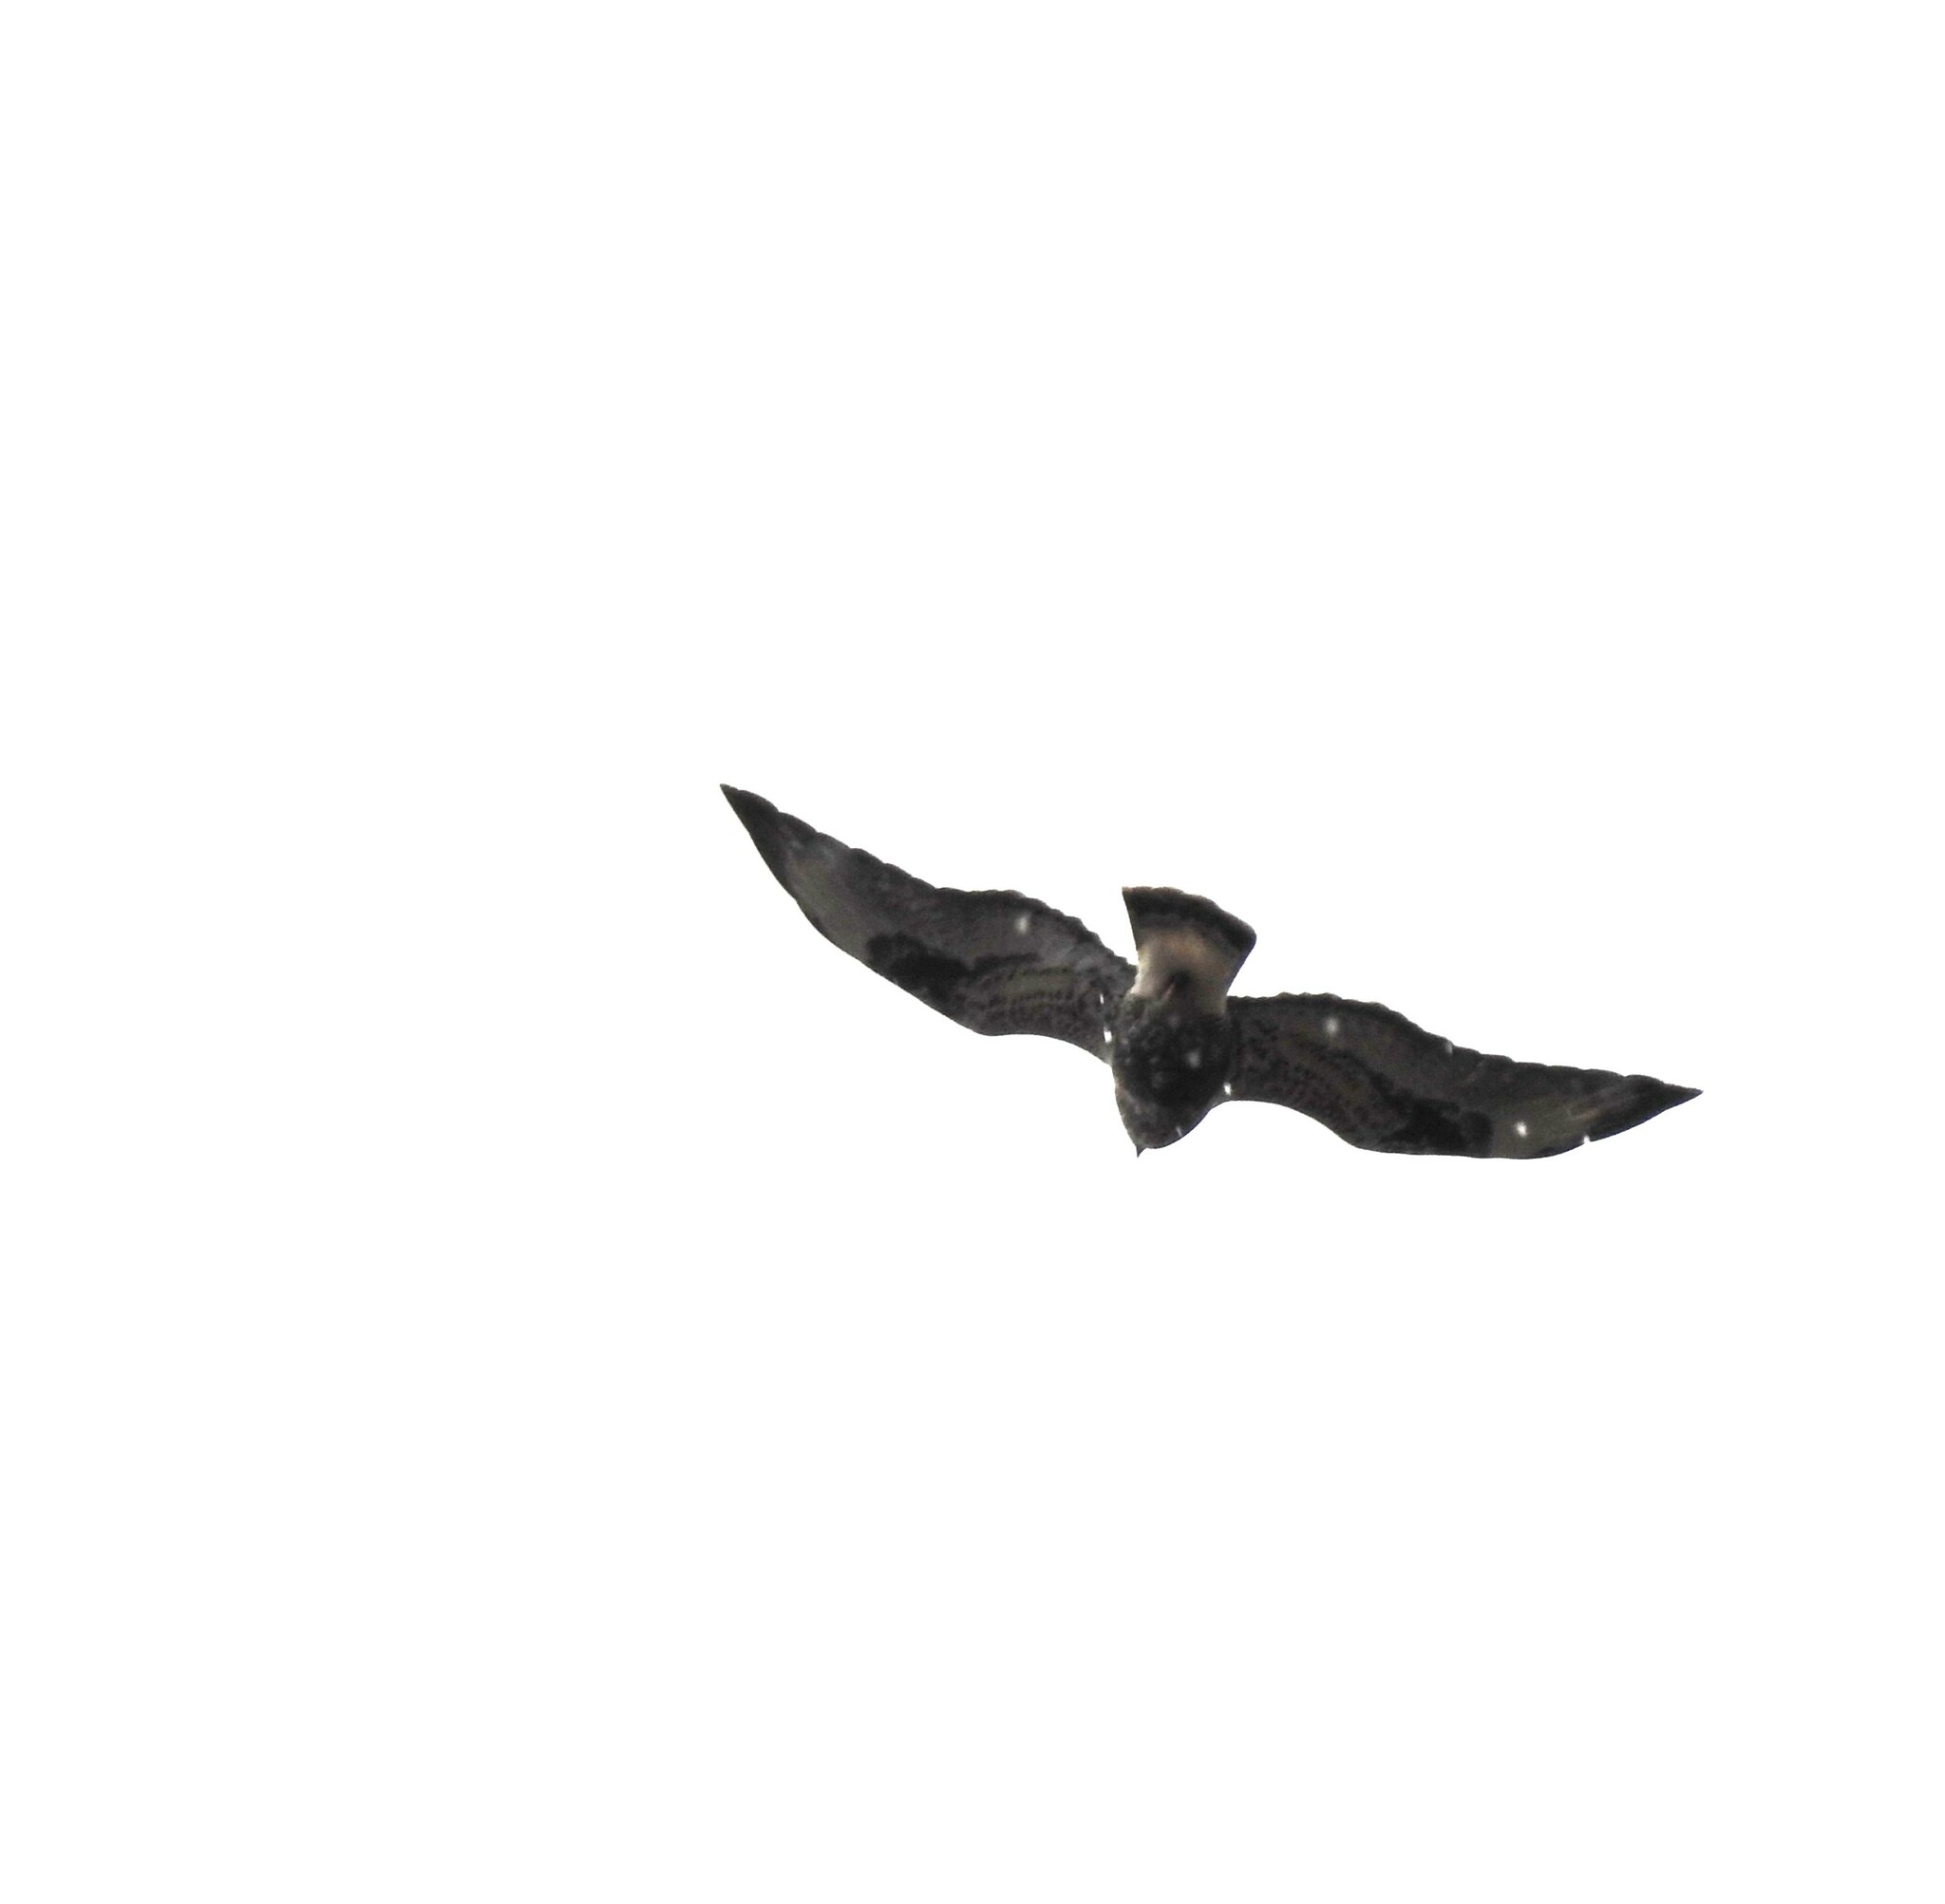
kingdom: Animalia
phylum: Chordata
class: Aves
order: Accipitriformes
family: Accipitridae
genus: Buteo
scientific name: Buteo lagopus
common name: Rough-legged buzzard
